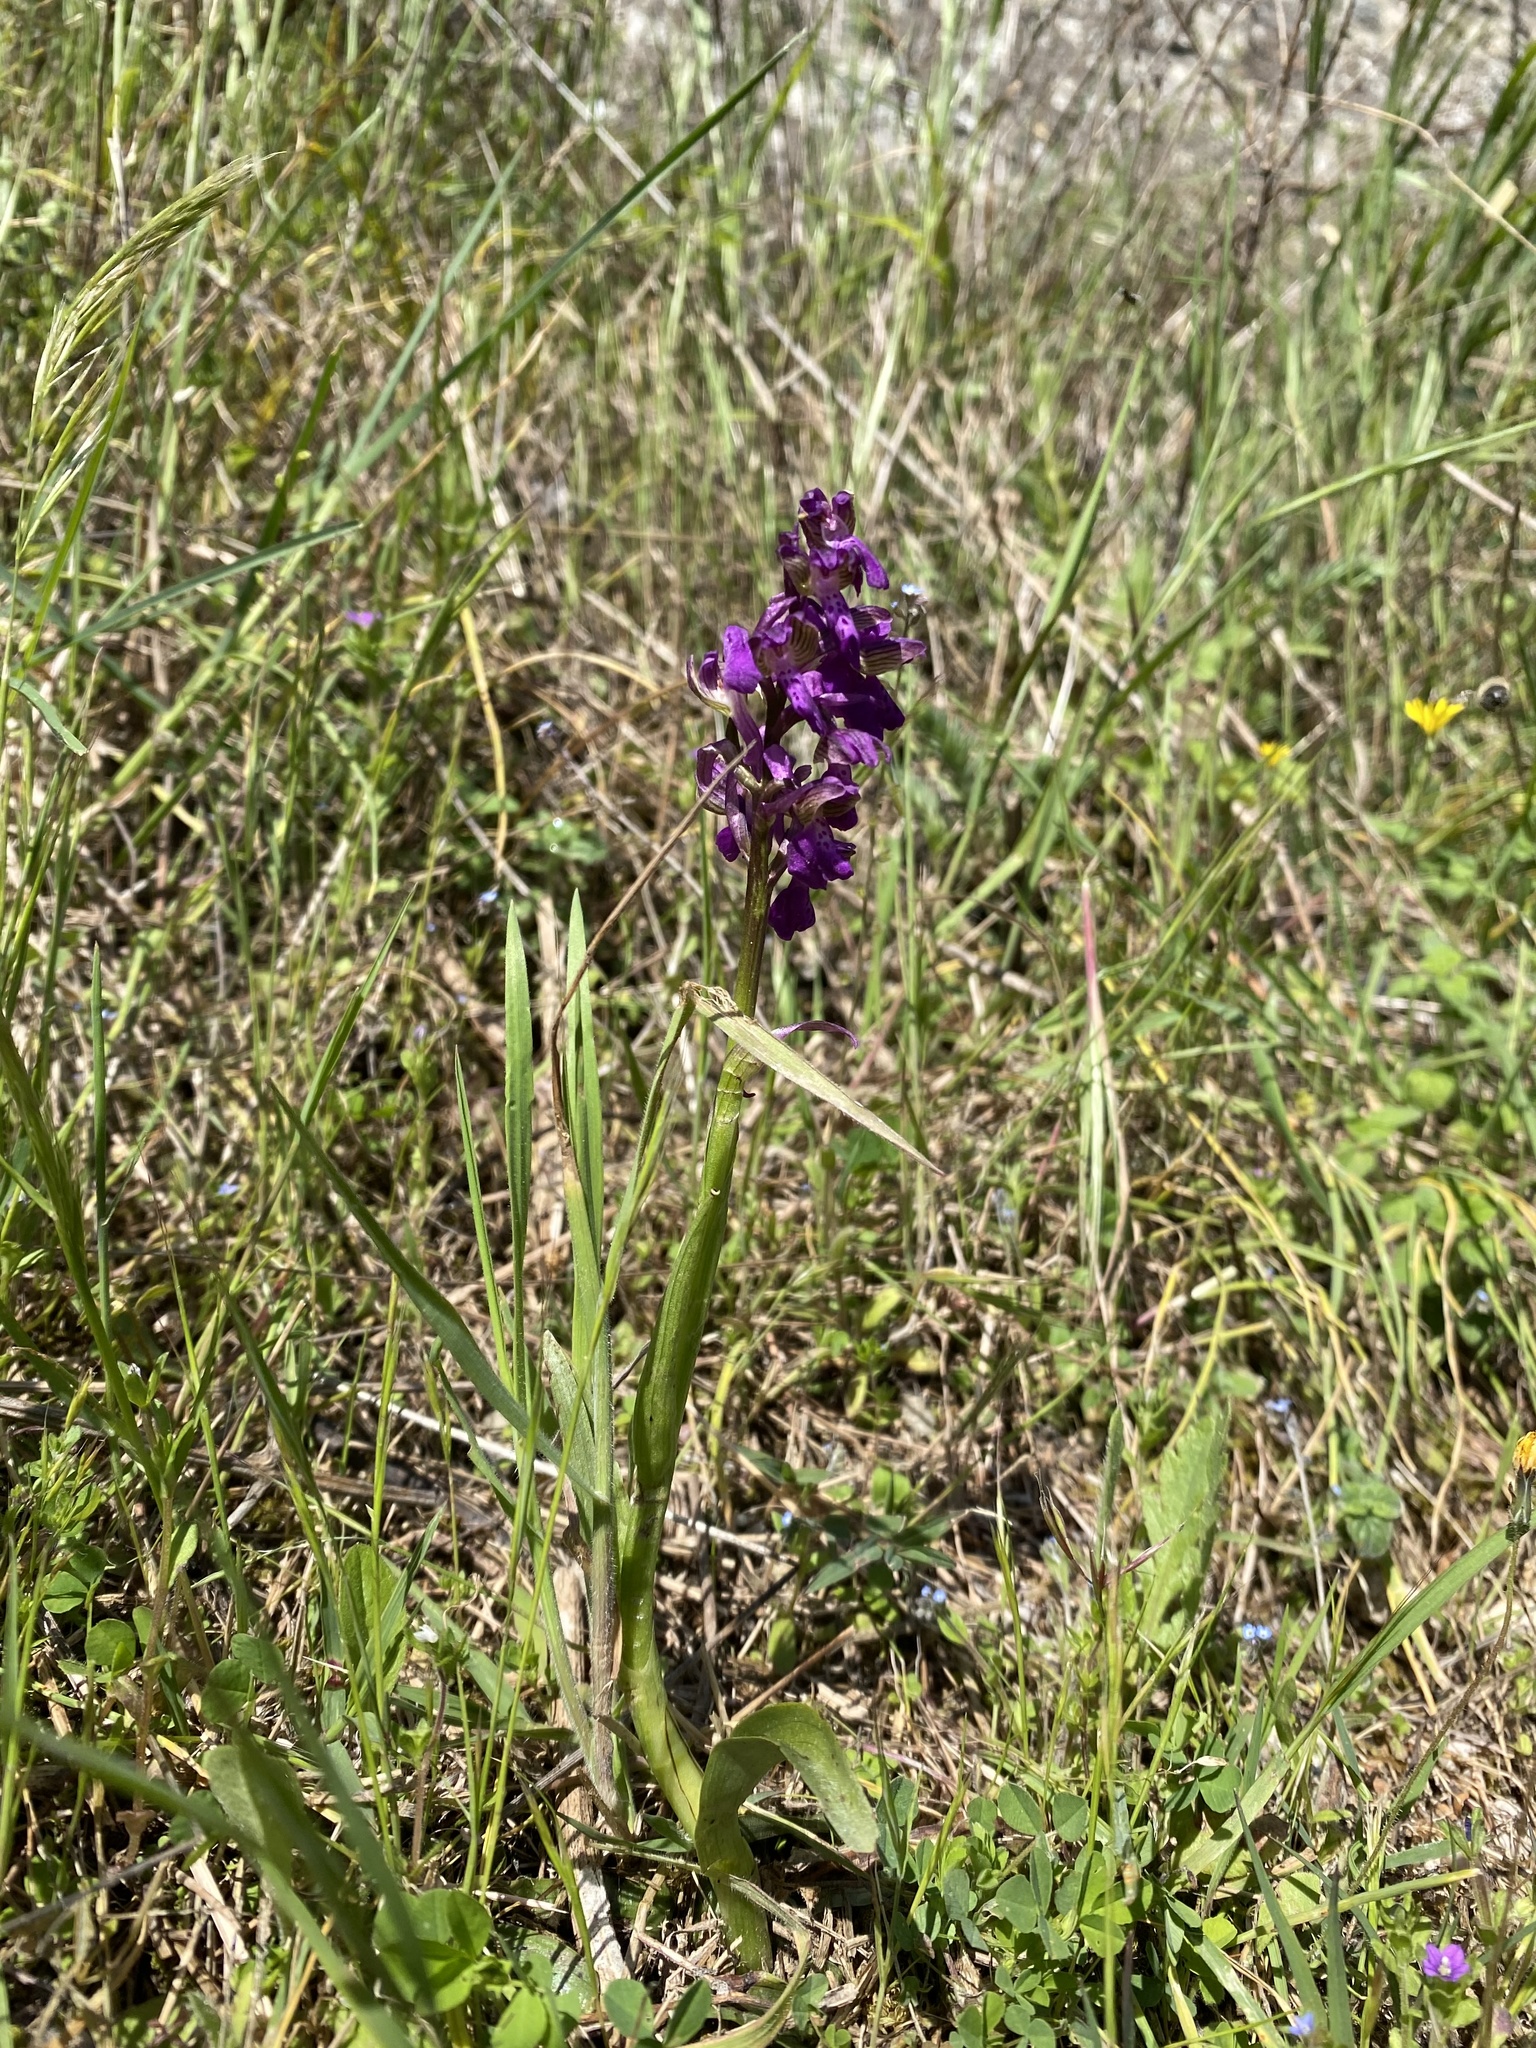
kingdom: Plantae
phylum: Tracheophyta
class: Liliopsida
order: Asparagales
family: Orchidaceae
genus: Anacamptis
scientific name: Anacamptis morio
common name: Green-winged orchid
